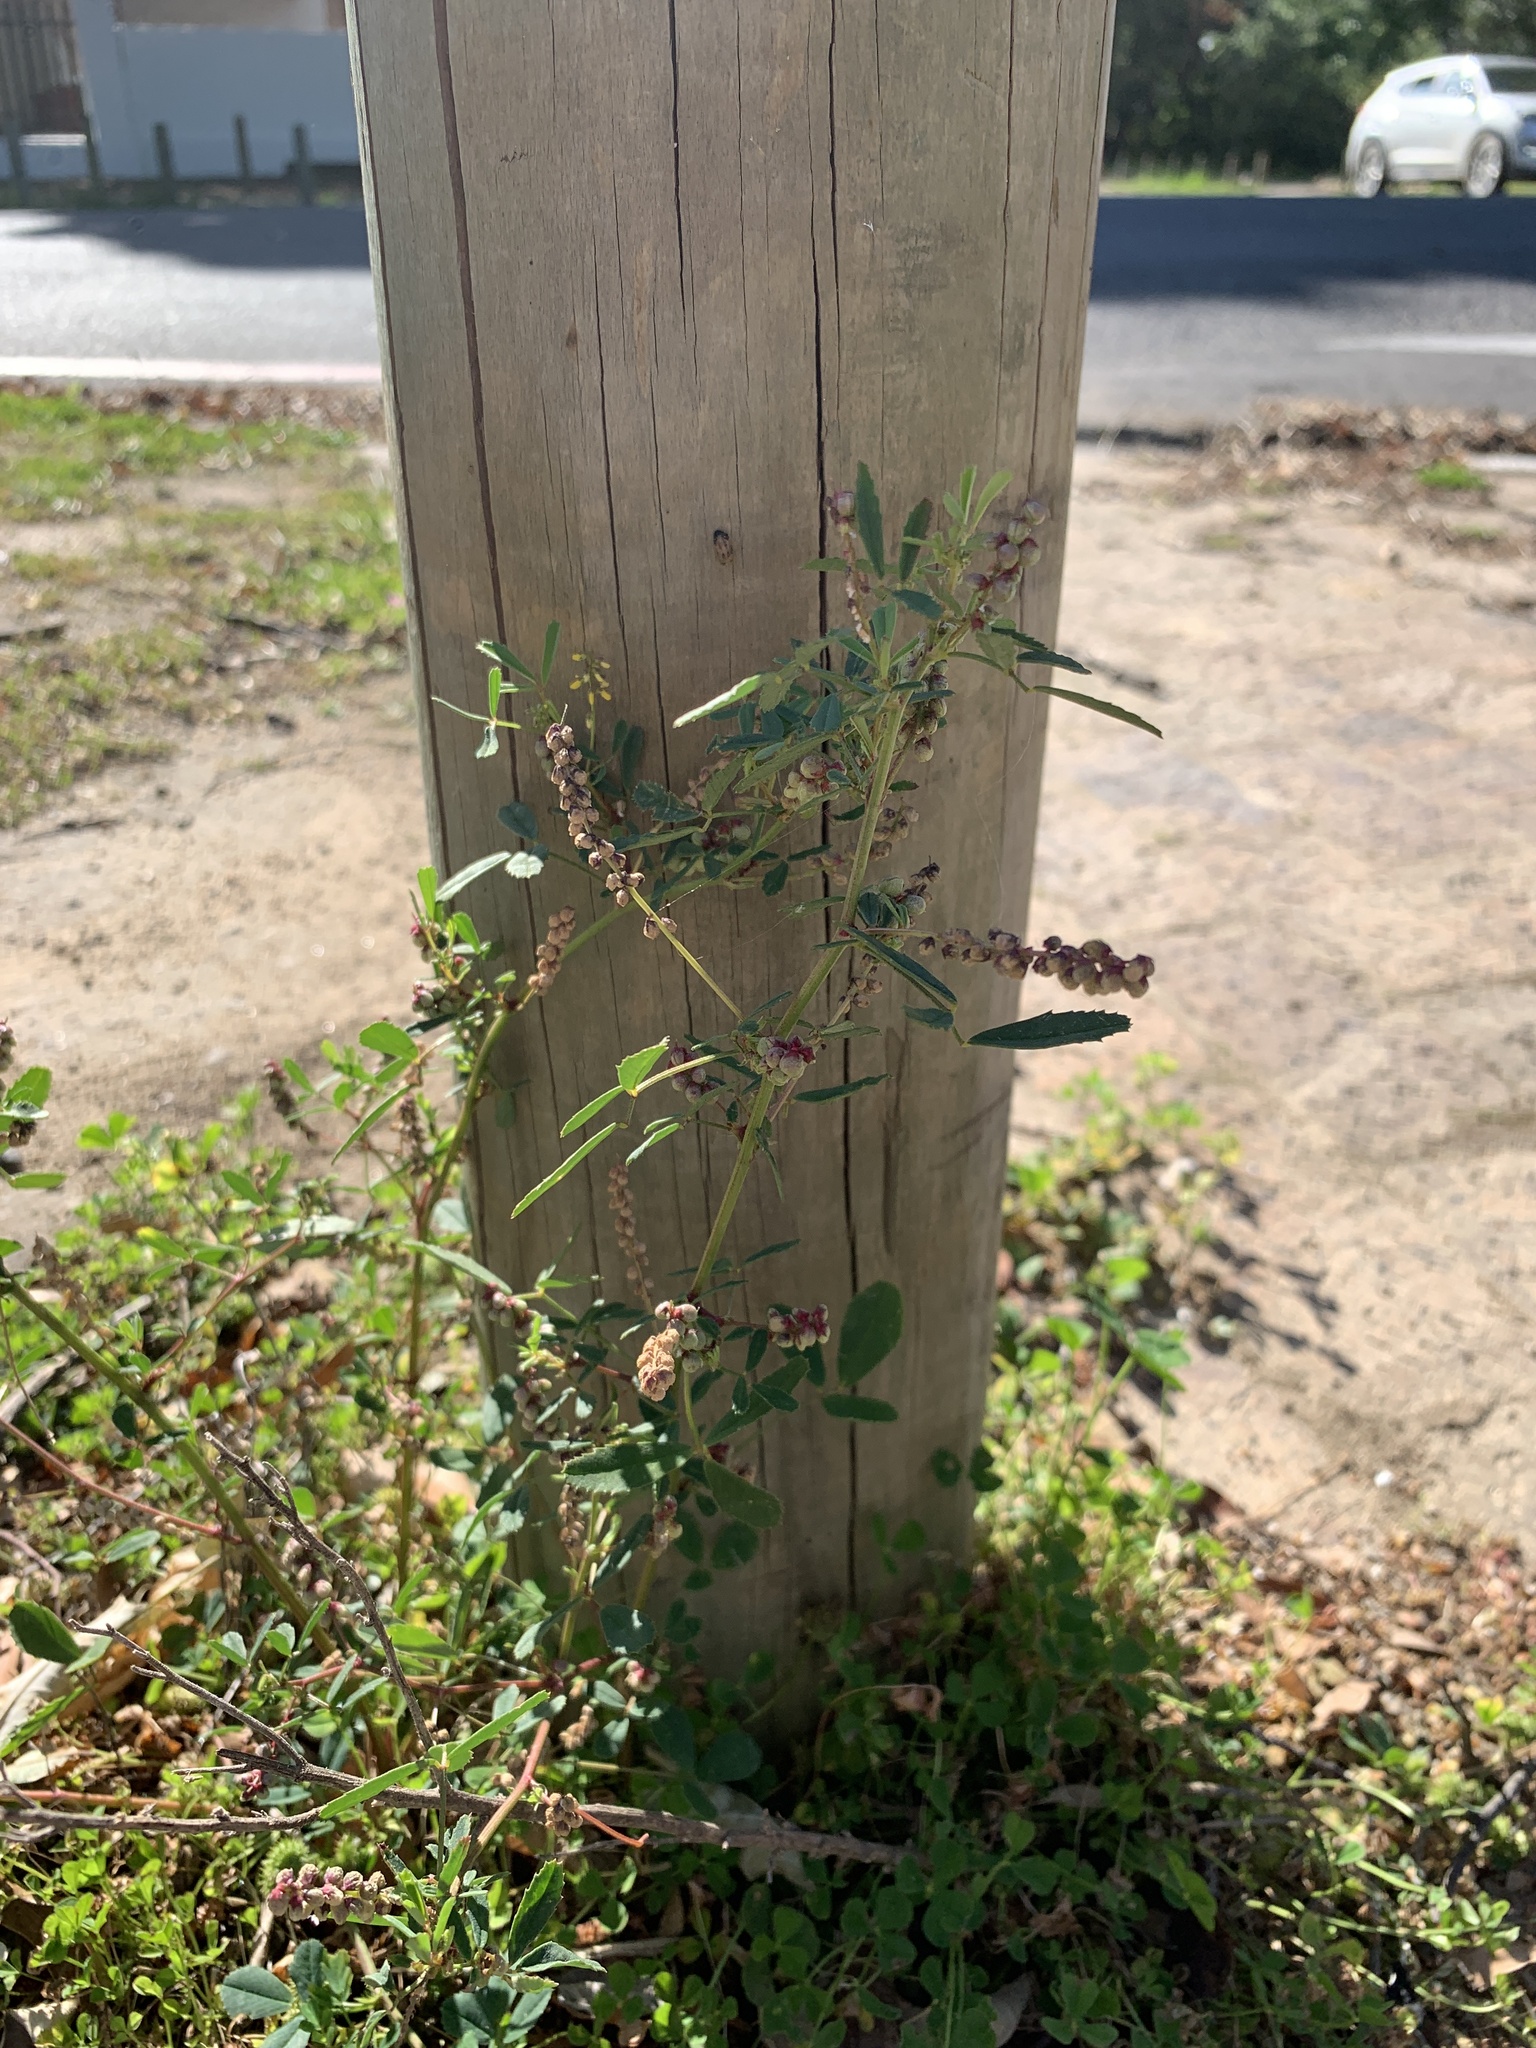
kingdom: Plantae
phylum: Tracheophyta
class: Magnoliopsida
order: Fabales
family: Fabaceae
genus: Melilotus
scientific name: Melilotus indicus
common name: Small melilot
